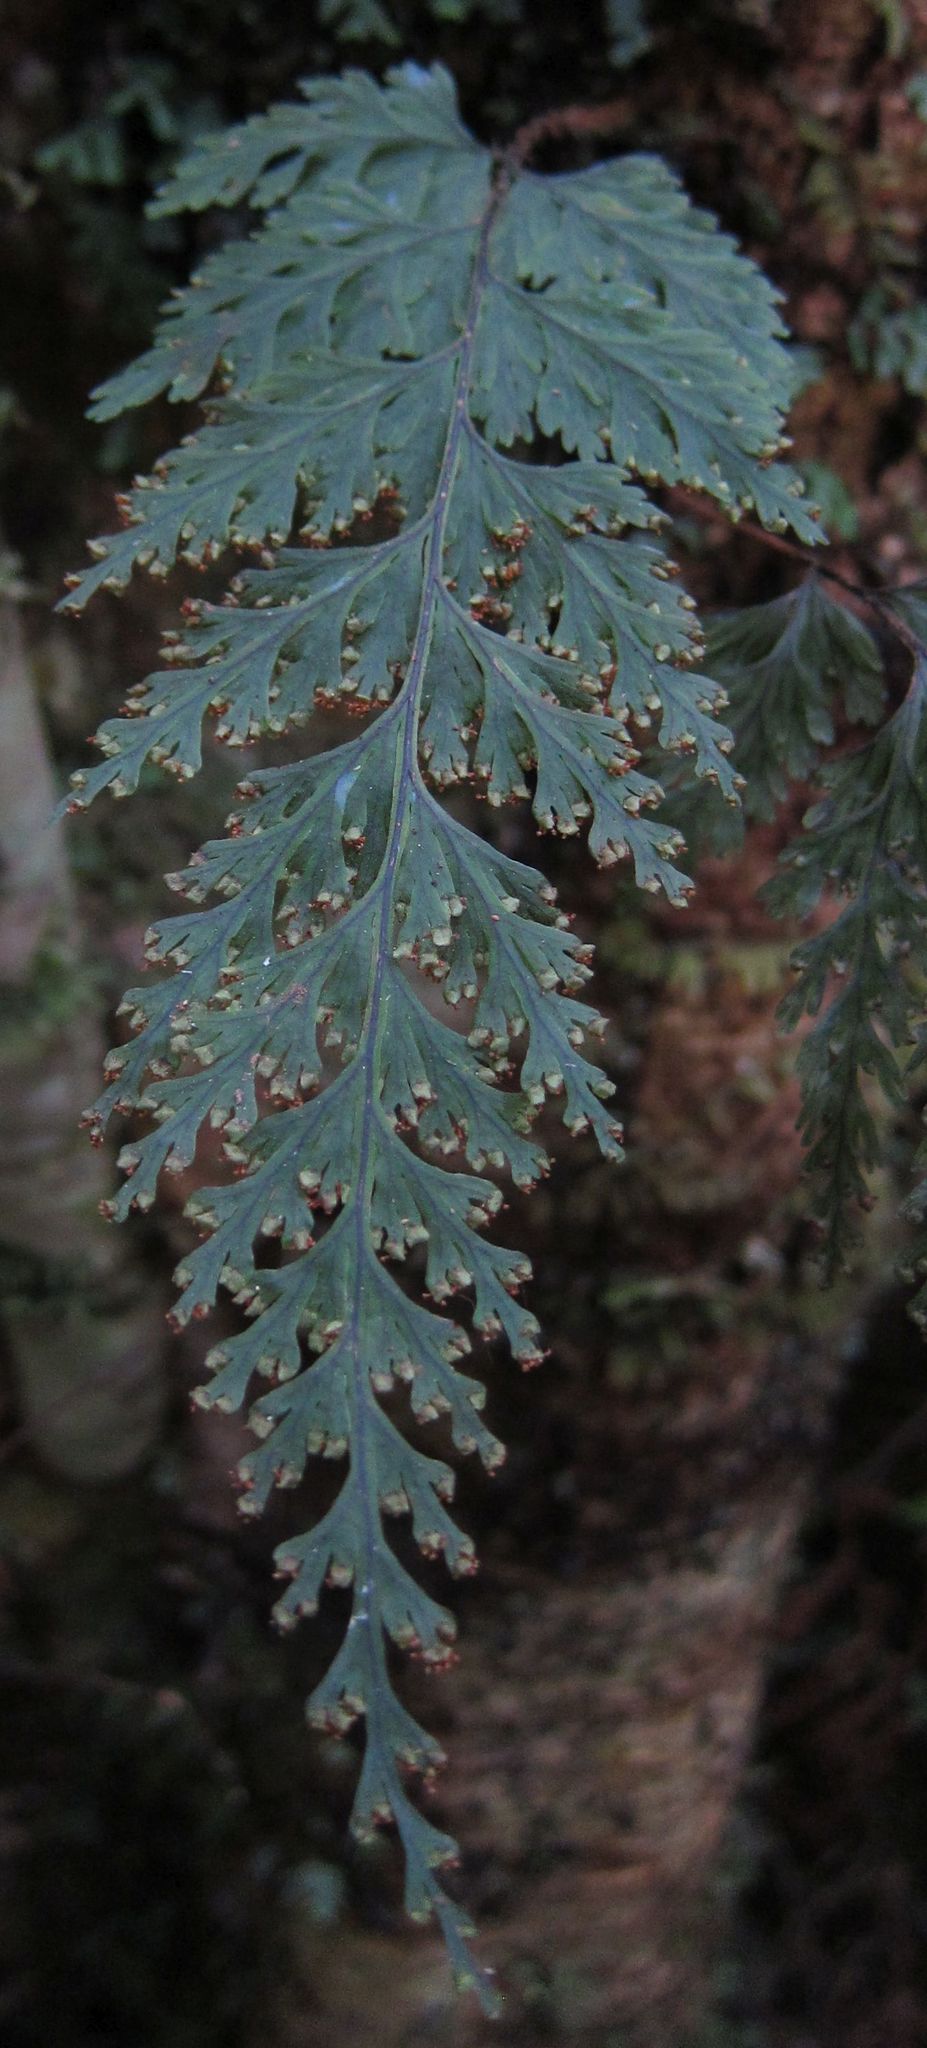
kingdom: Plantae
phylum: Tracheophyta
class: Polypodiopsida
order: Hymenophyllales
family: Hymenophyllaceae
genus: Hymenophyllum
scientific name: Hymenophyllum scabrum
